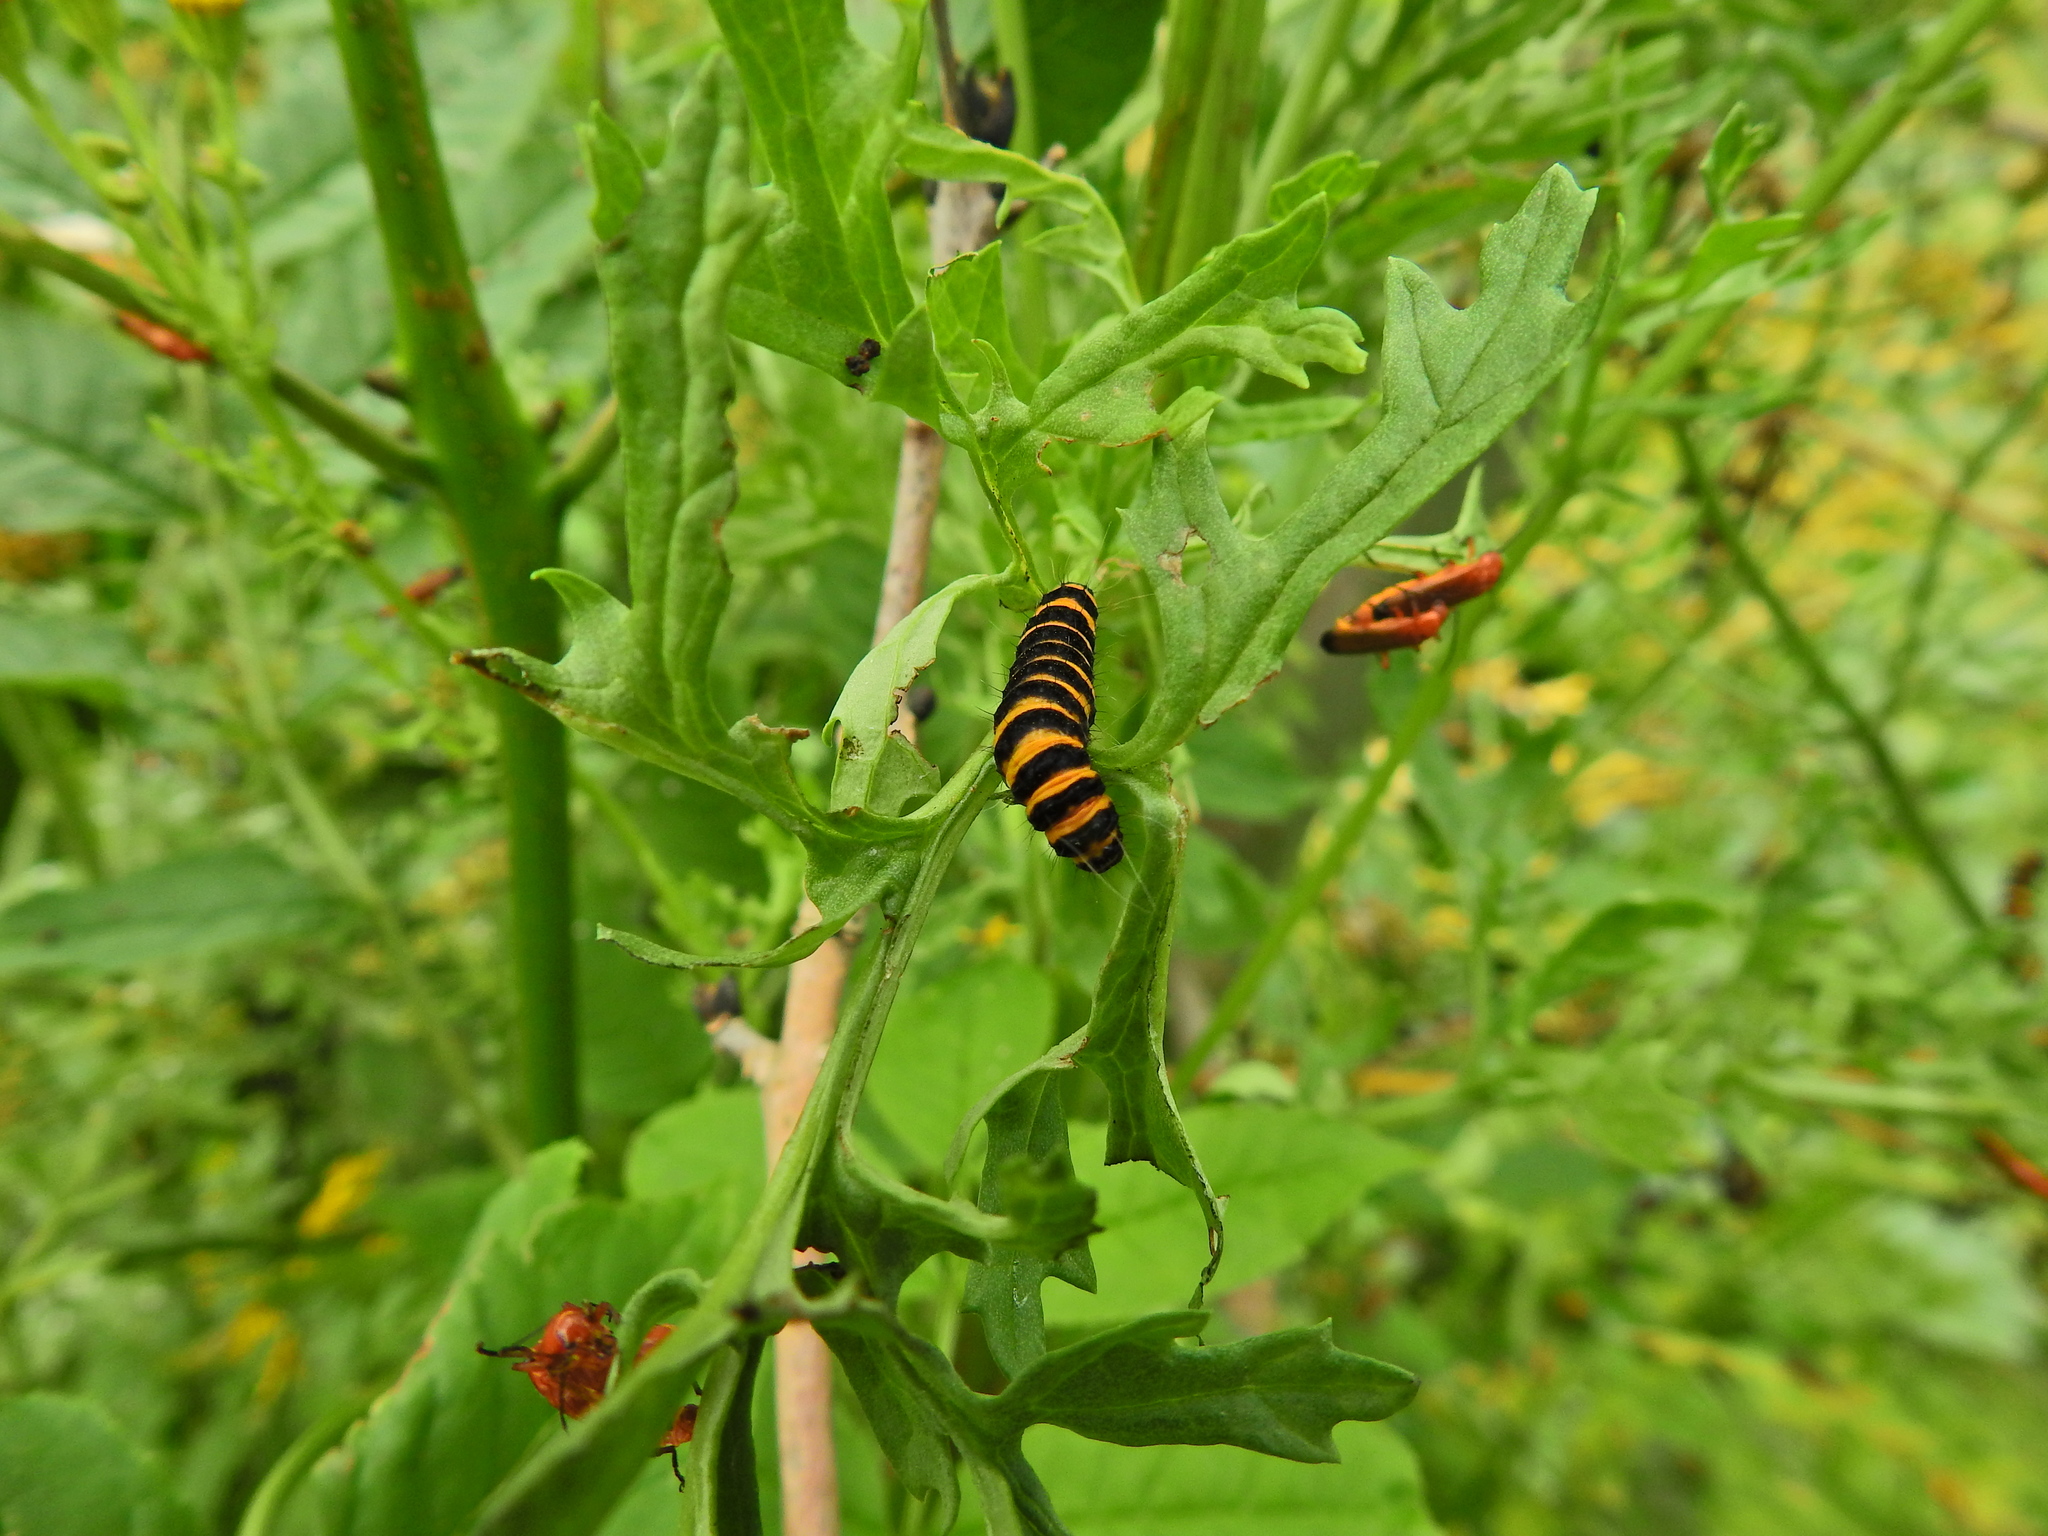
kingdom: Animalia
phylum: Arthropoda
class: Insecta
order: Lepidoptera
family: Erebidae
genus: Tyria
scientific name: Tyria jacobaeae
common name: Cinnabar
